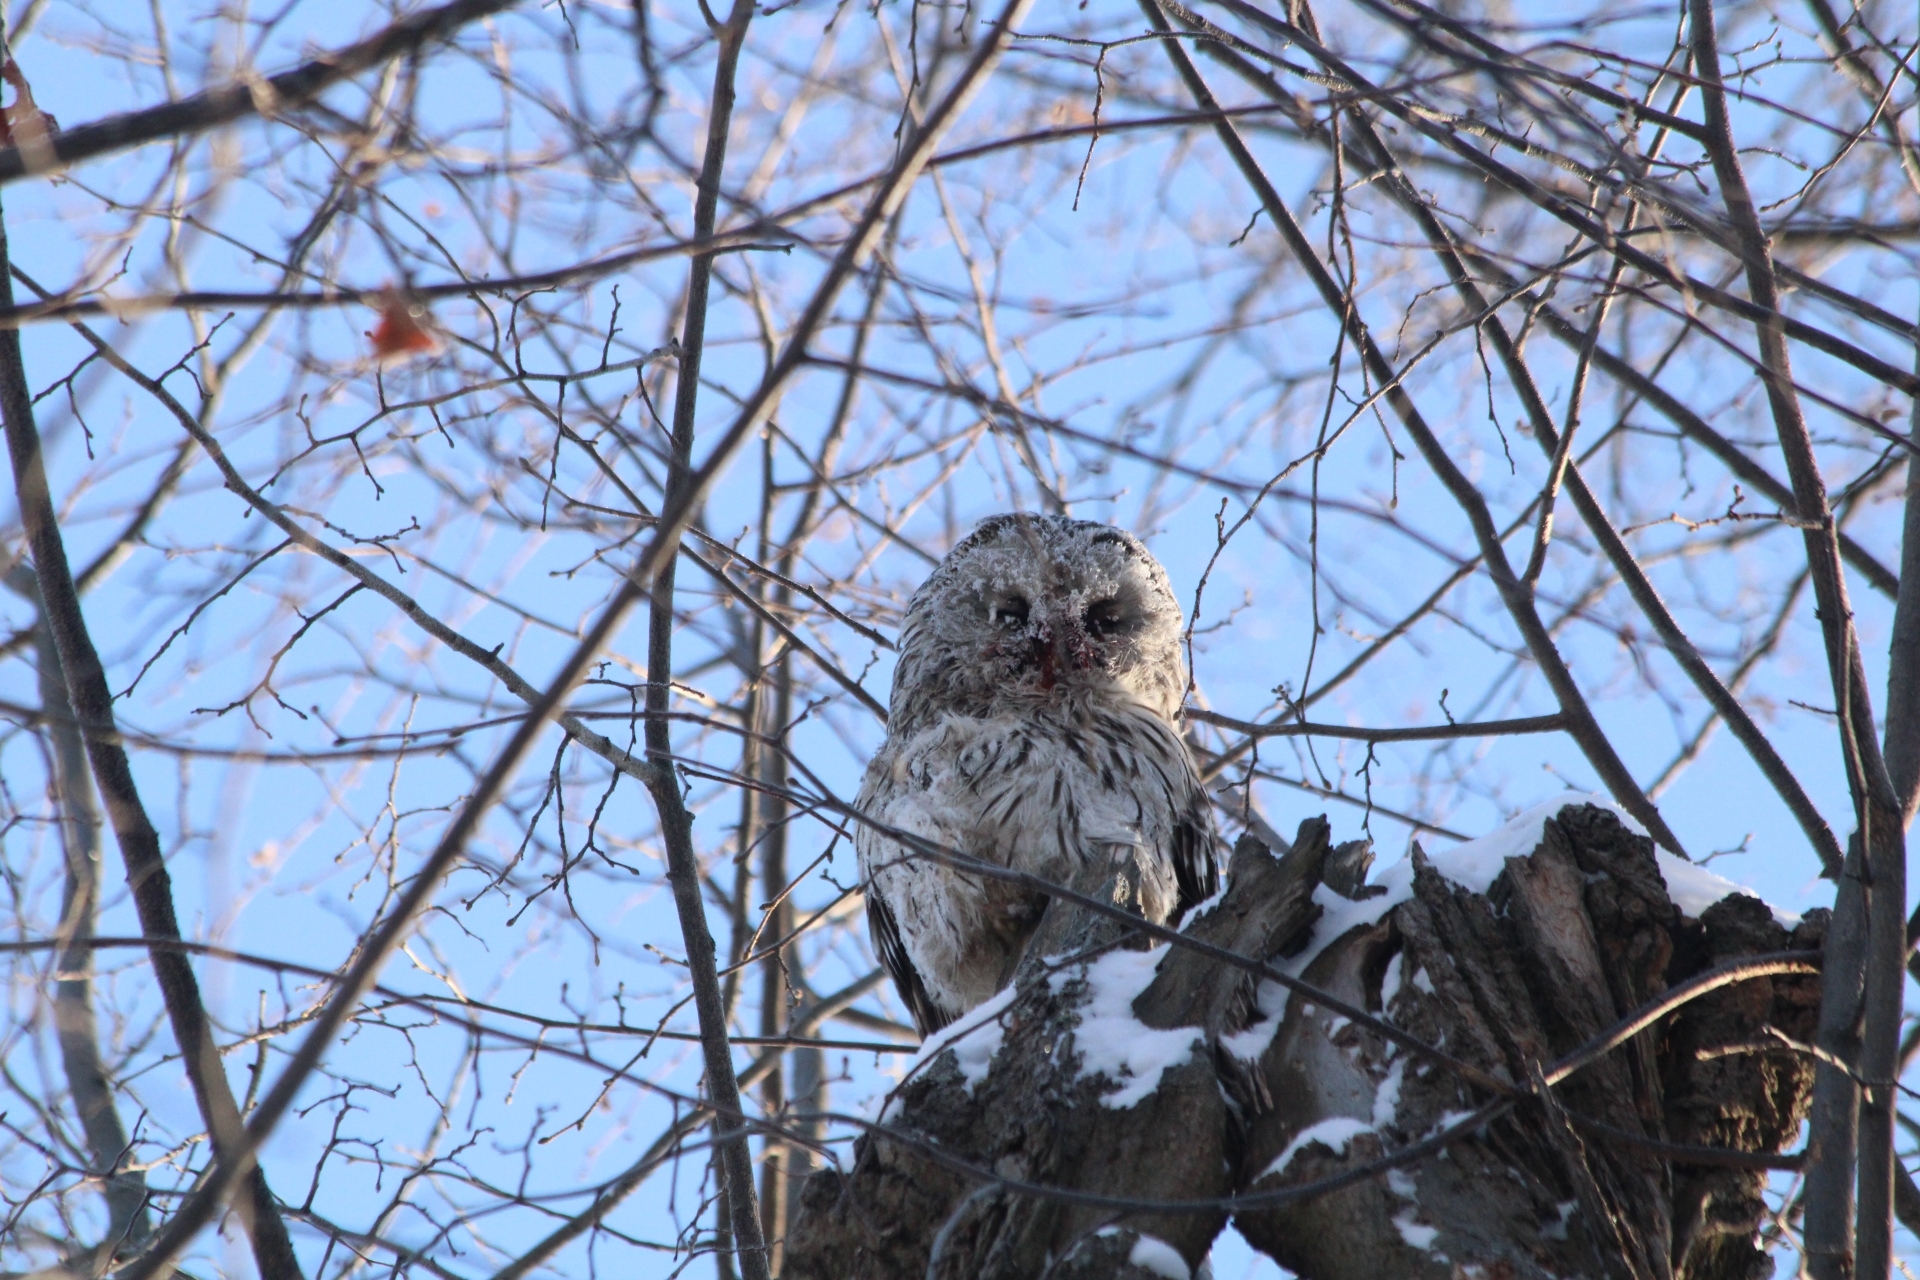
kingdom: Animalia
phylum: Chordata
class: Aves
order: Strigiformes
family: Strigidae
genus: Strix
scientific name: Strix uralensis
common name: Ural owl
